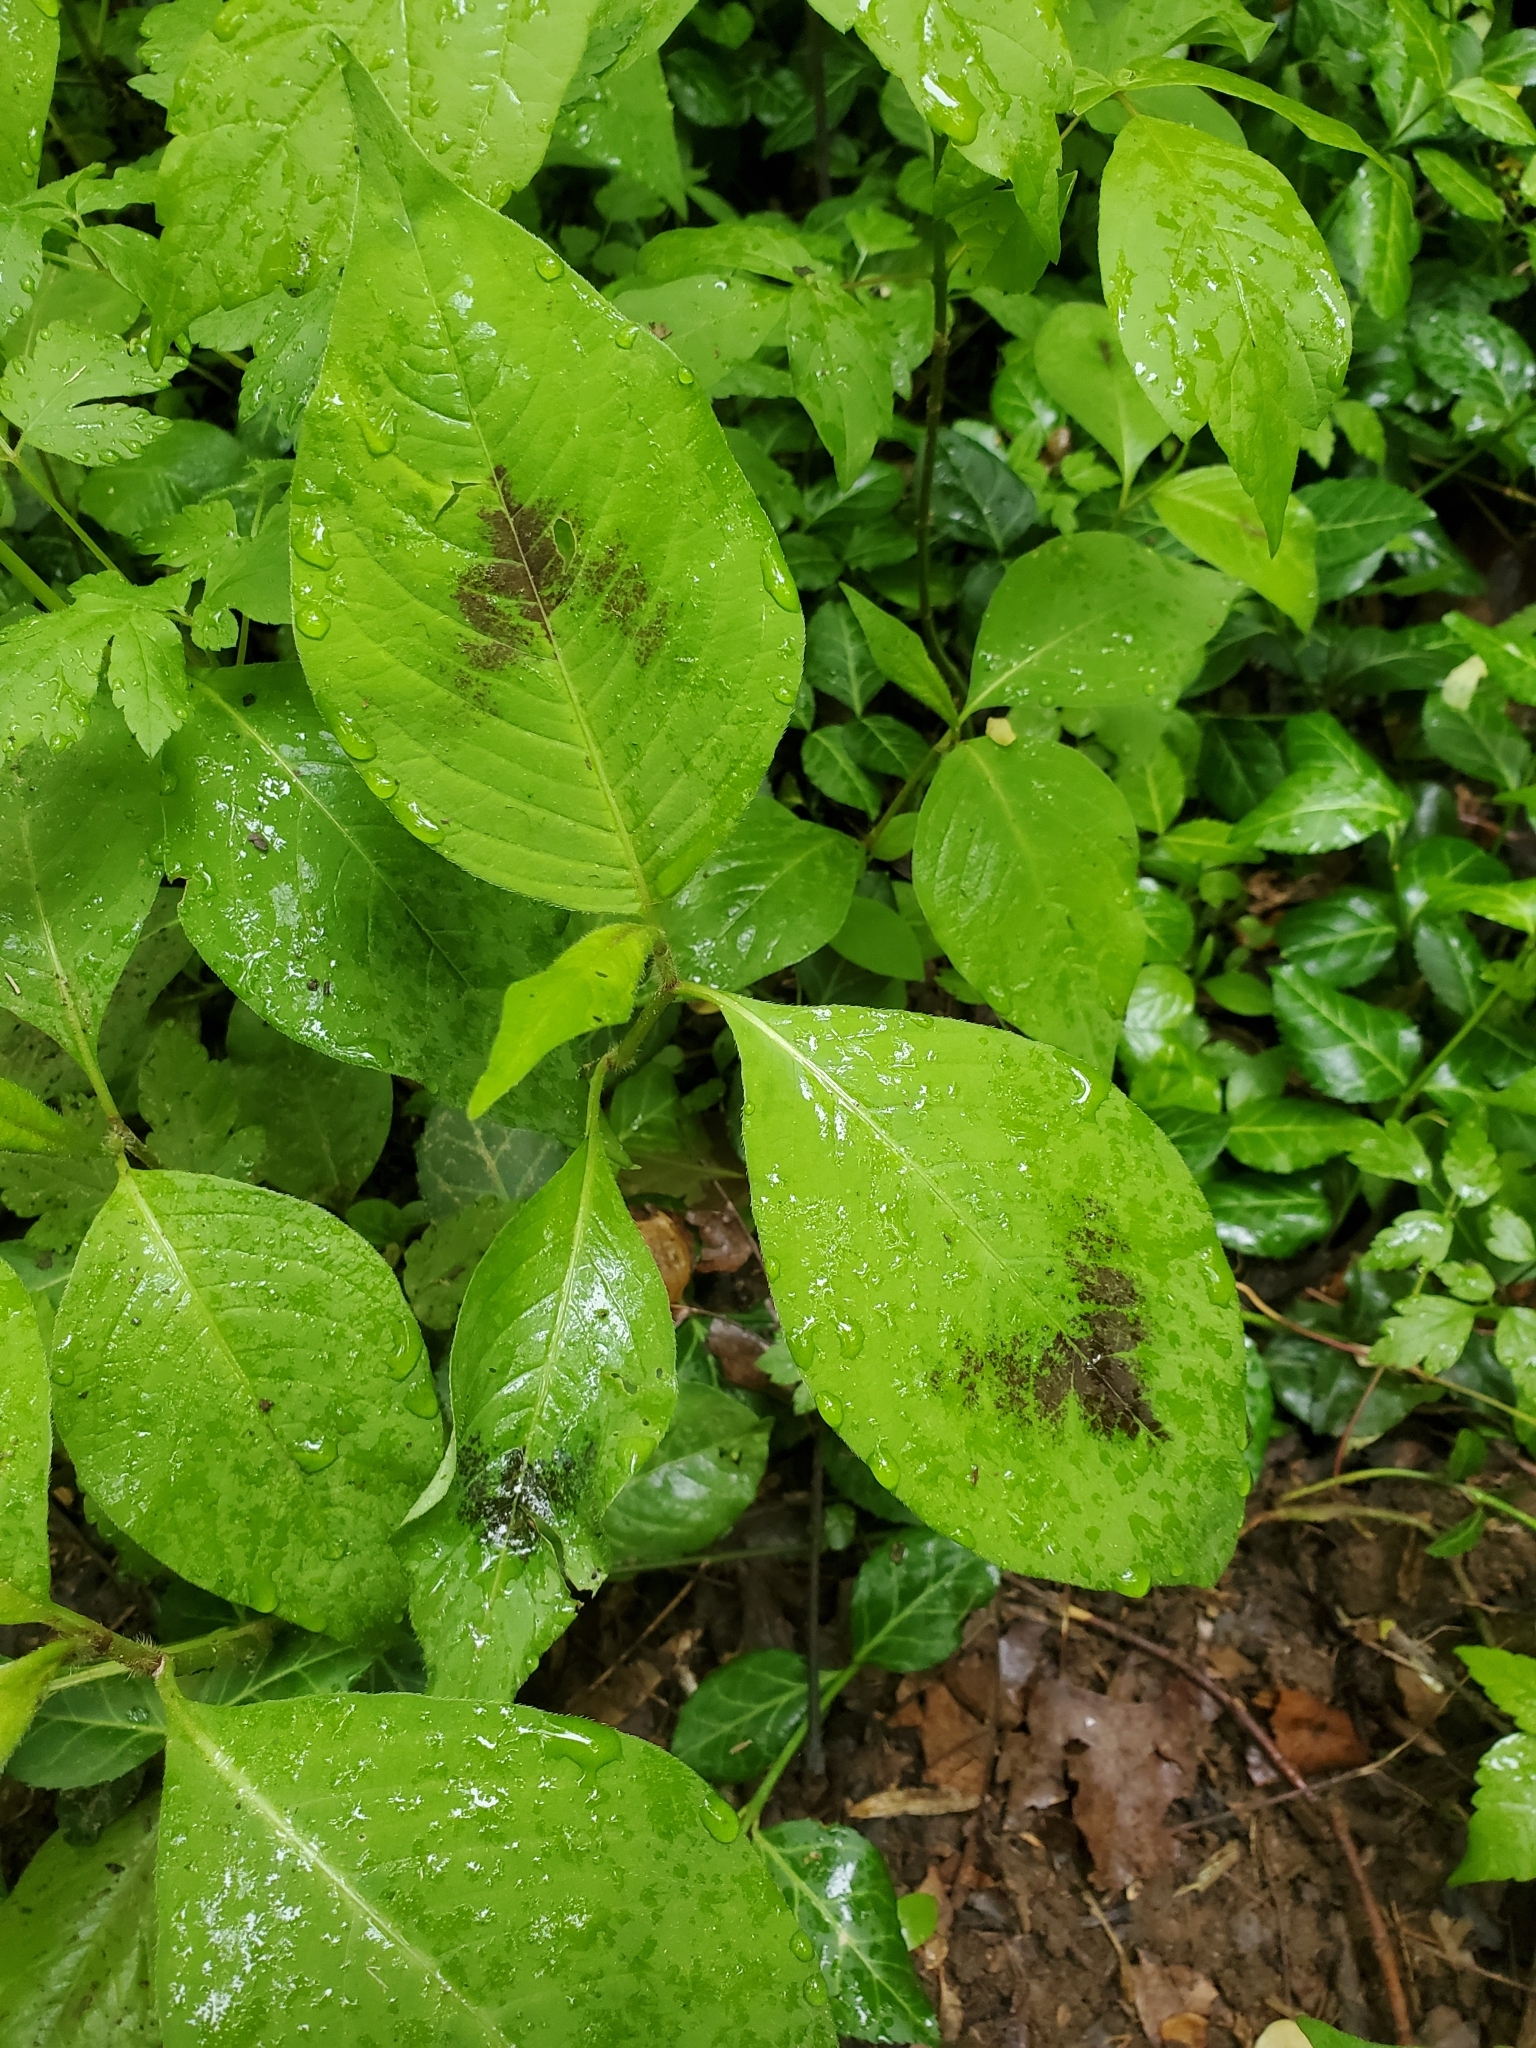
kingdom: Plantae
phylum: Tracheophyta
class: Magnoliopsida
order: Caryophyllales
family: Polygonaceae
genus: Persicaria
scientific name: Persicaria virginiana
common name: Jumpseed
